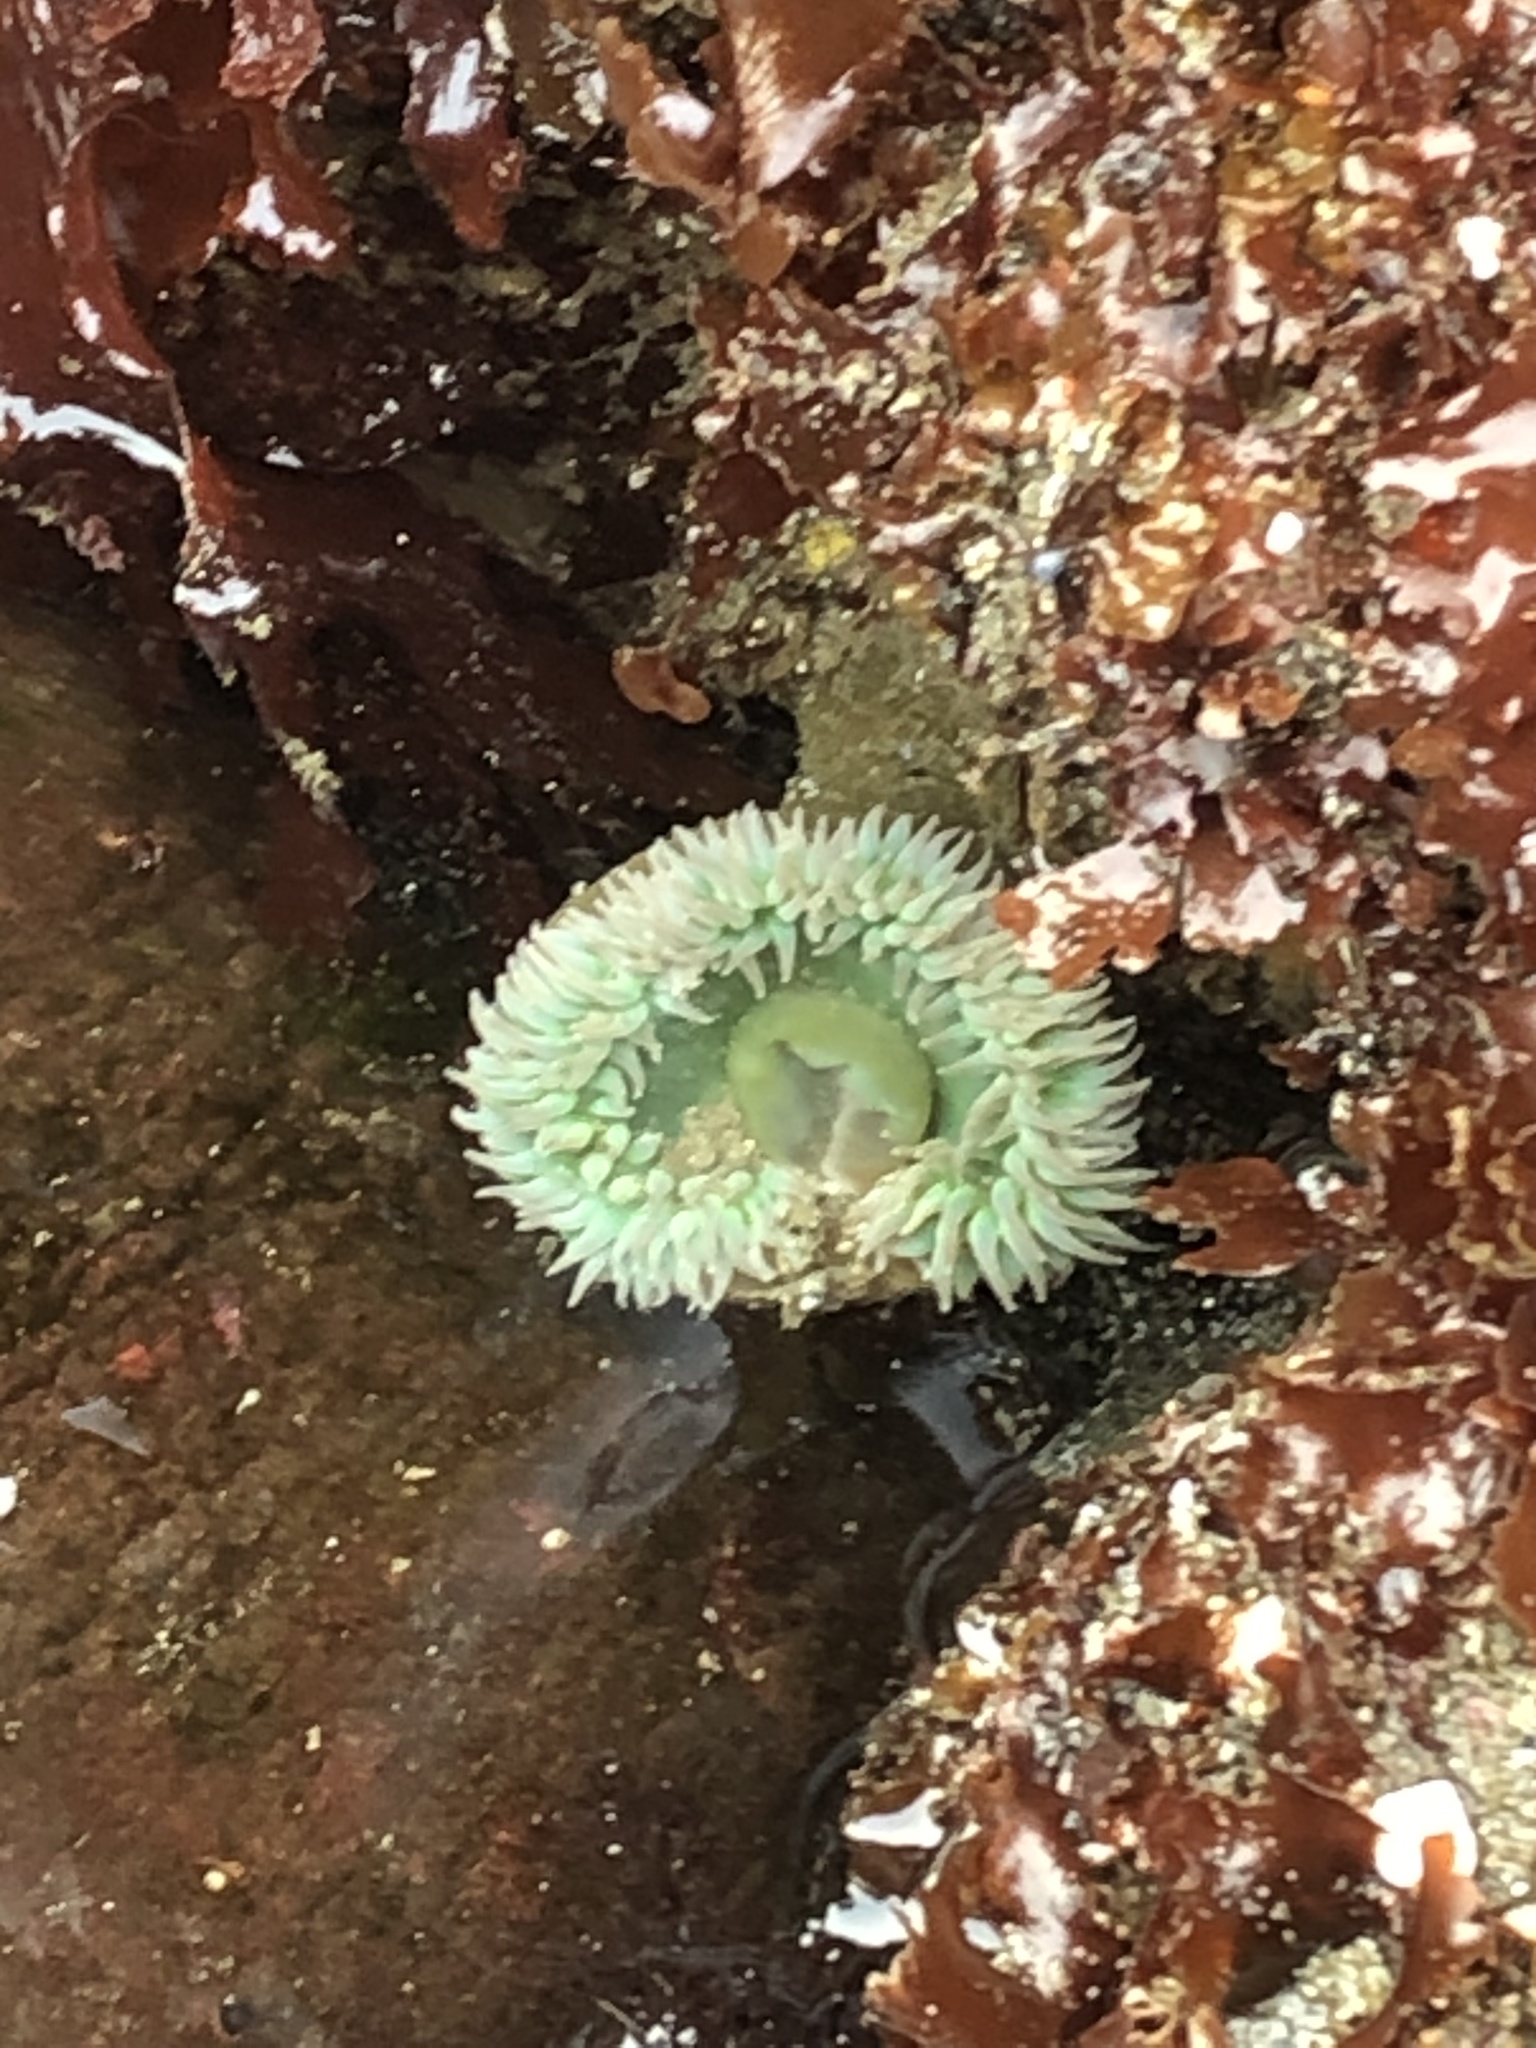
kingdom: Animalia
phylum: Cnidaria
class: Anthozoa
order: Actiniaria
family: Actiniidae
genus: Anthopleura
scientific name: Anthopleura xanthogrammica
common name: Giant green anemone
